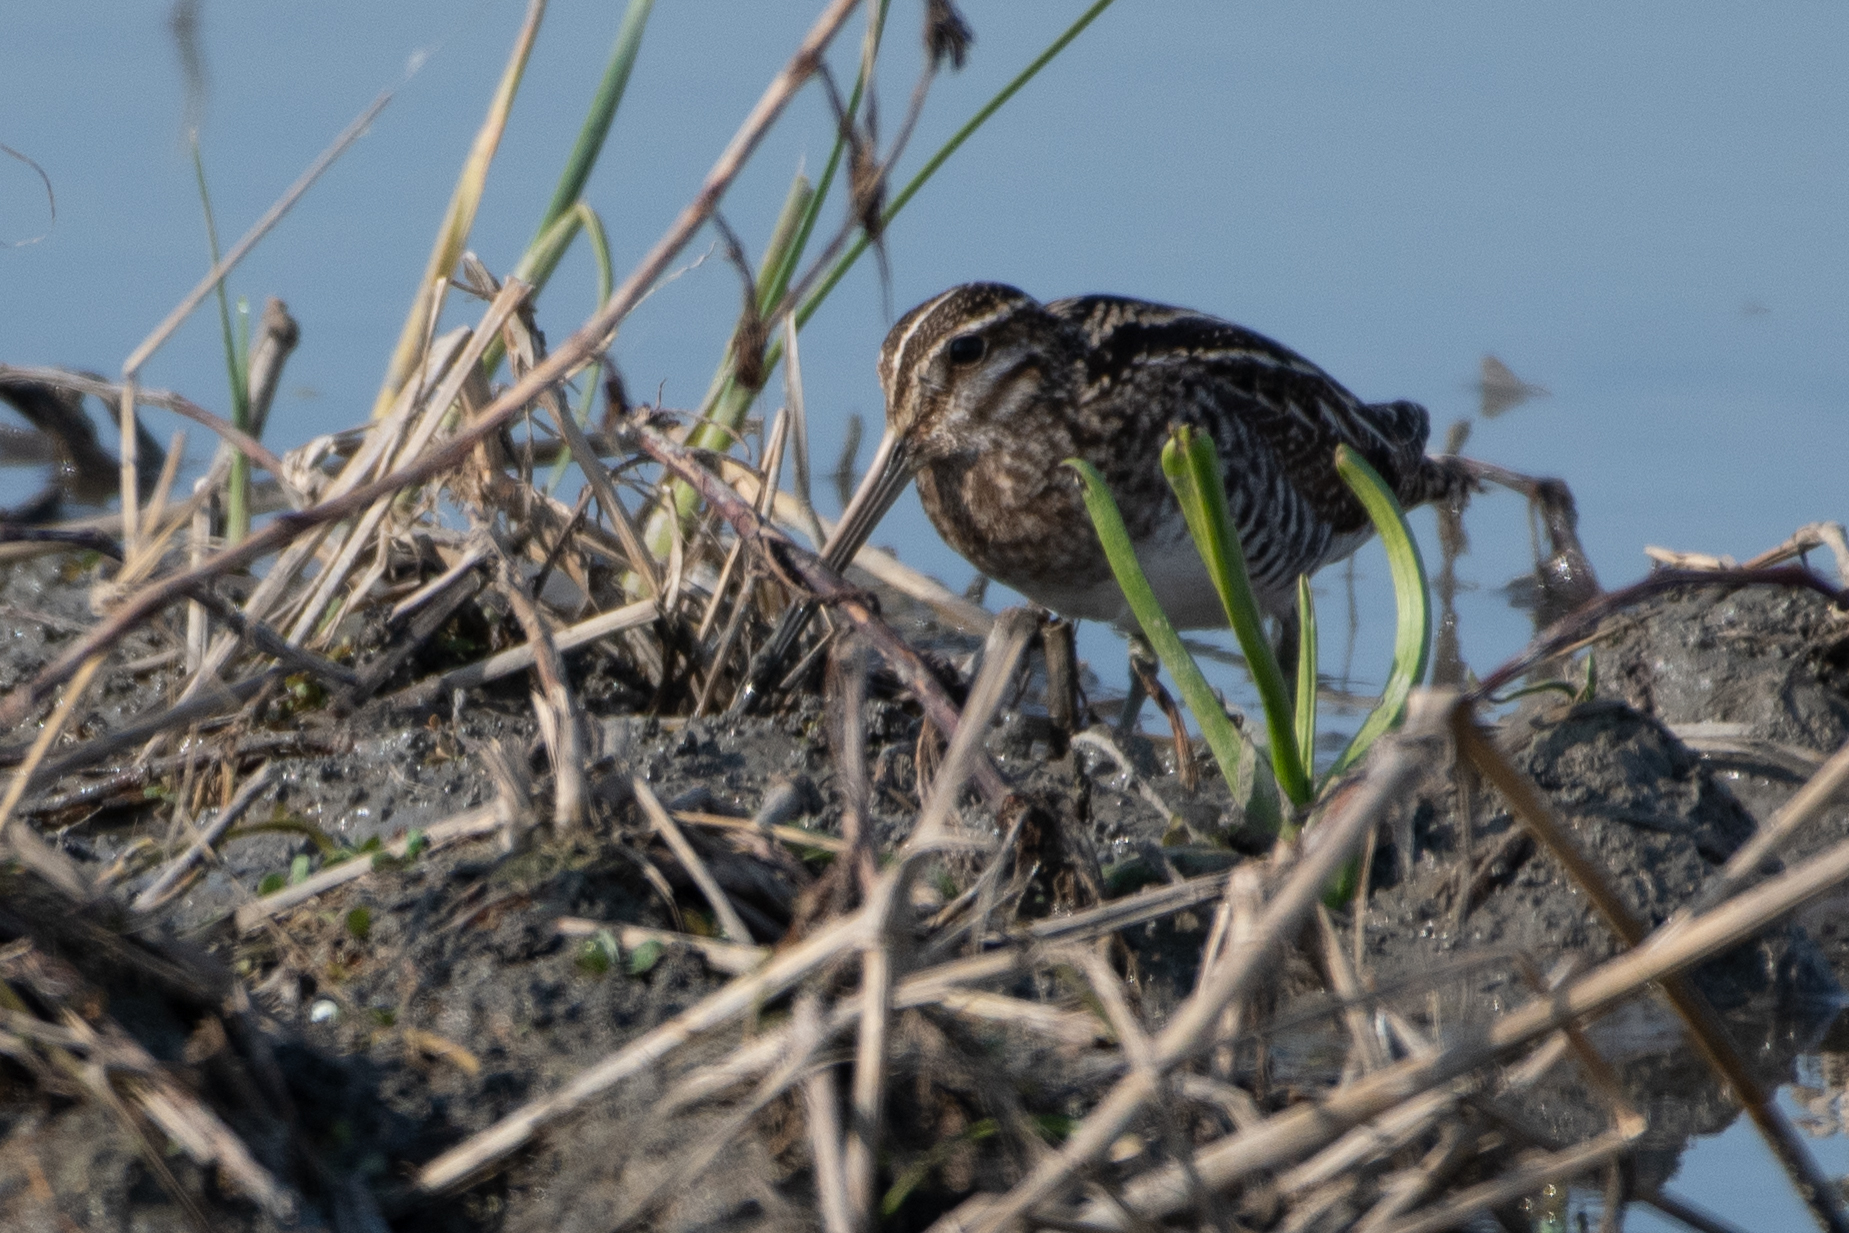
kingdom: Animalia
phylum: Chordata
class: Aves
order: Charadriiformes
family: Scolopacidae
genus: Gallinago
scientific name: Gallinago delicata
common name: Wilson's snipe
